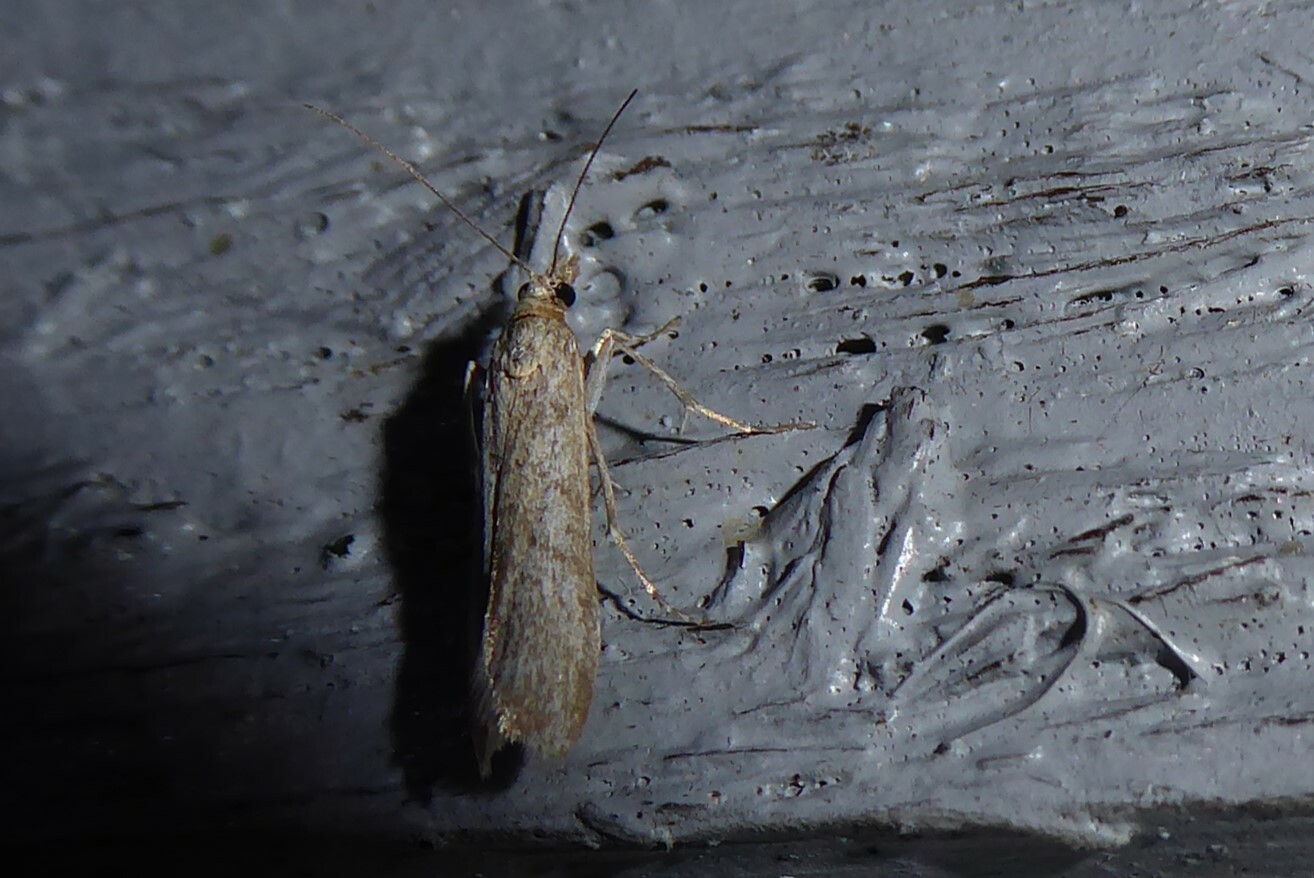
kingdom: Animalia
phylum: Arthropoda
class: Insecta
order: Lepidoptera
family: Crambidae
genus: Eudonia
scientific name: Eudonia leptalea
